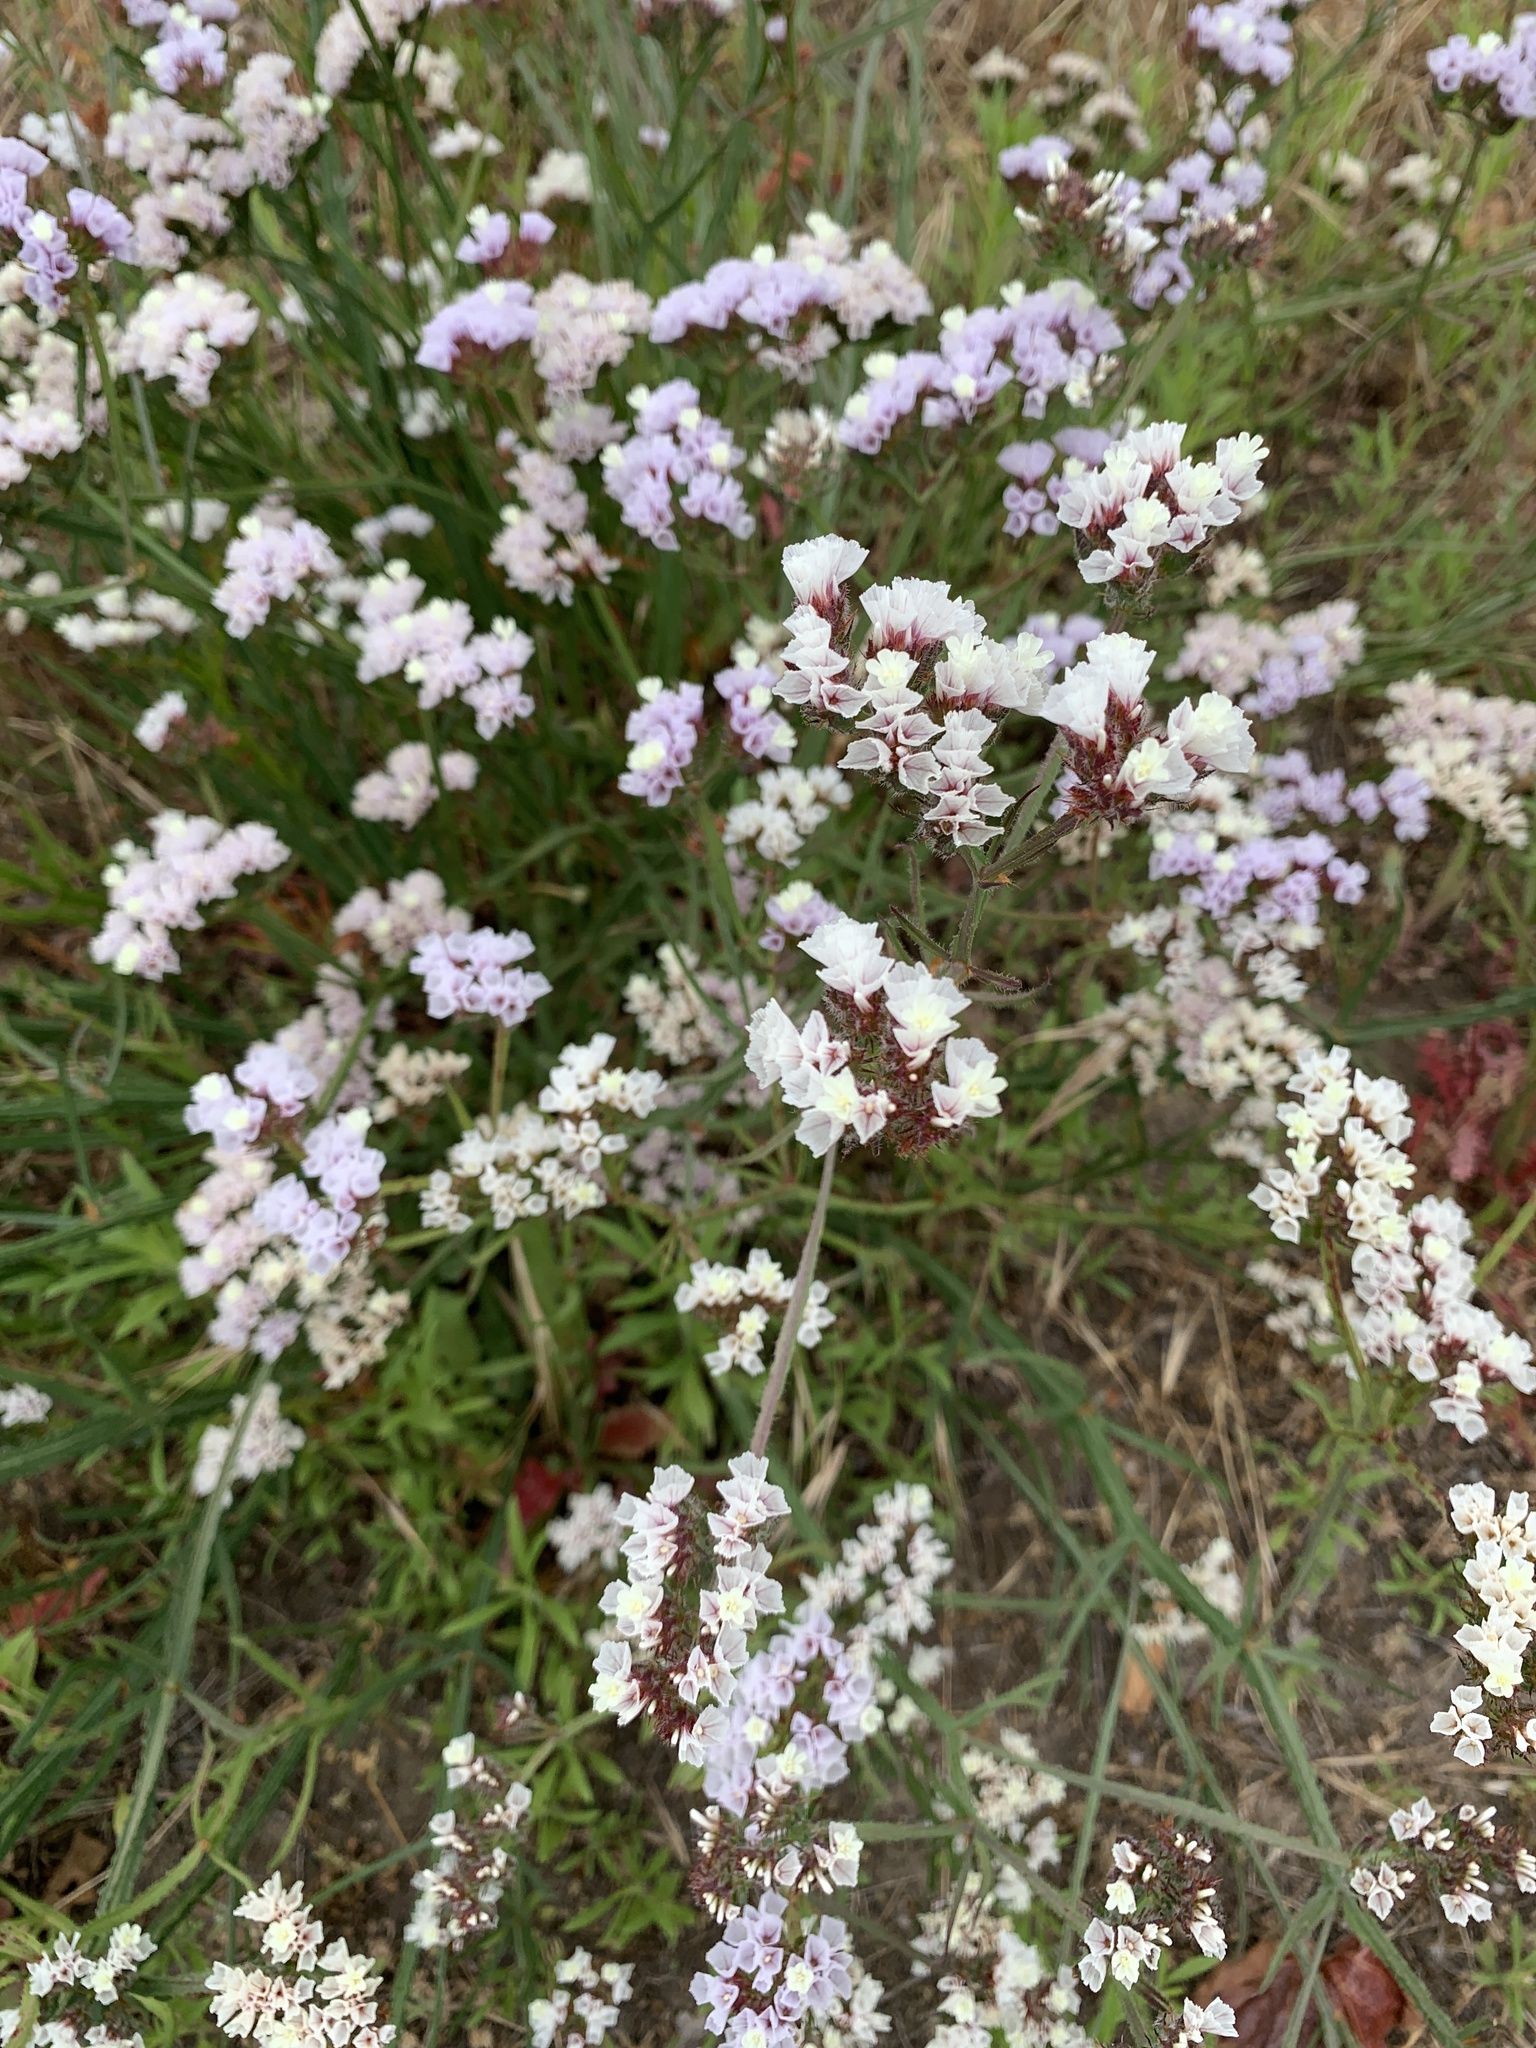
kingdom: Plantae
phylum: Tracheophyta
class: Magnoliopsida
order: Caryophyllales
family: Plumbaginaceae
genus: Limonium
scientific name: Limonium sinuatum
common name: Statice
